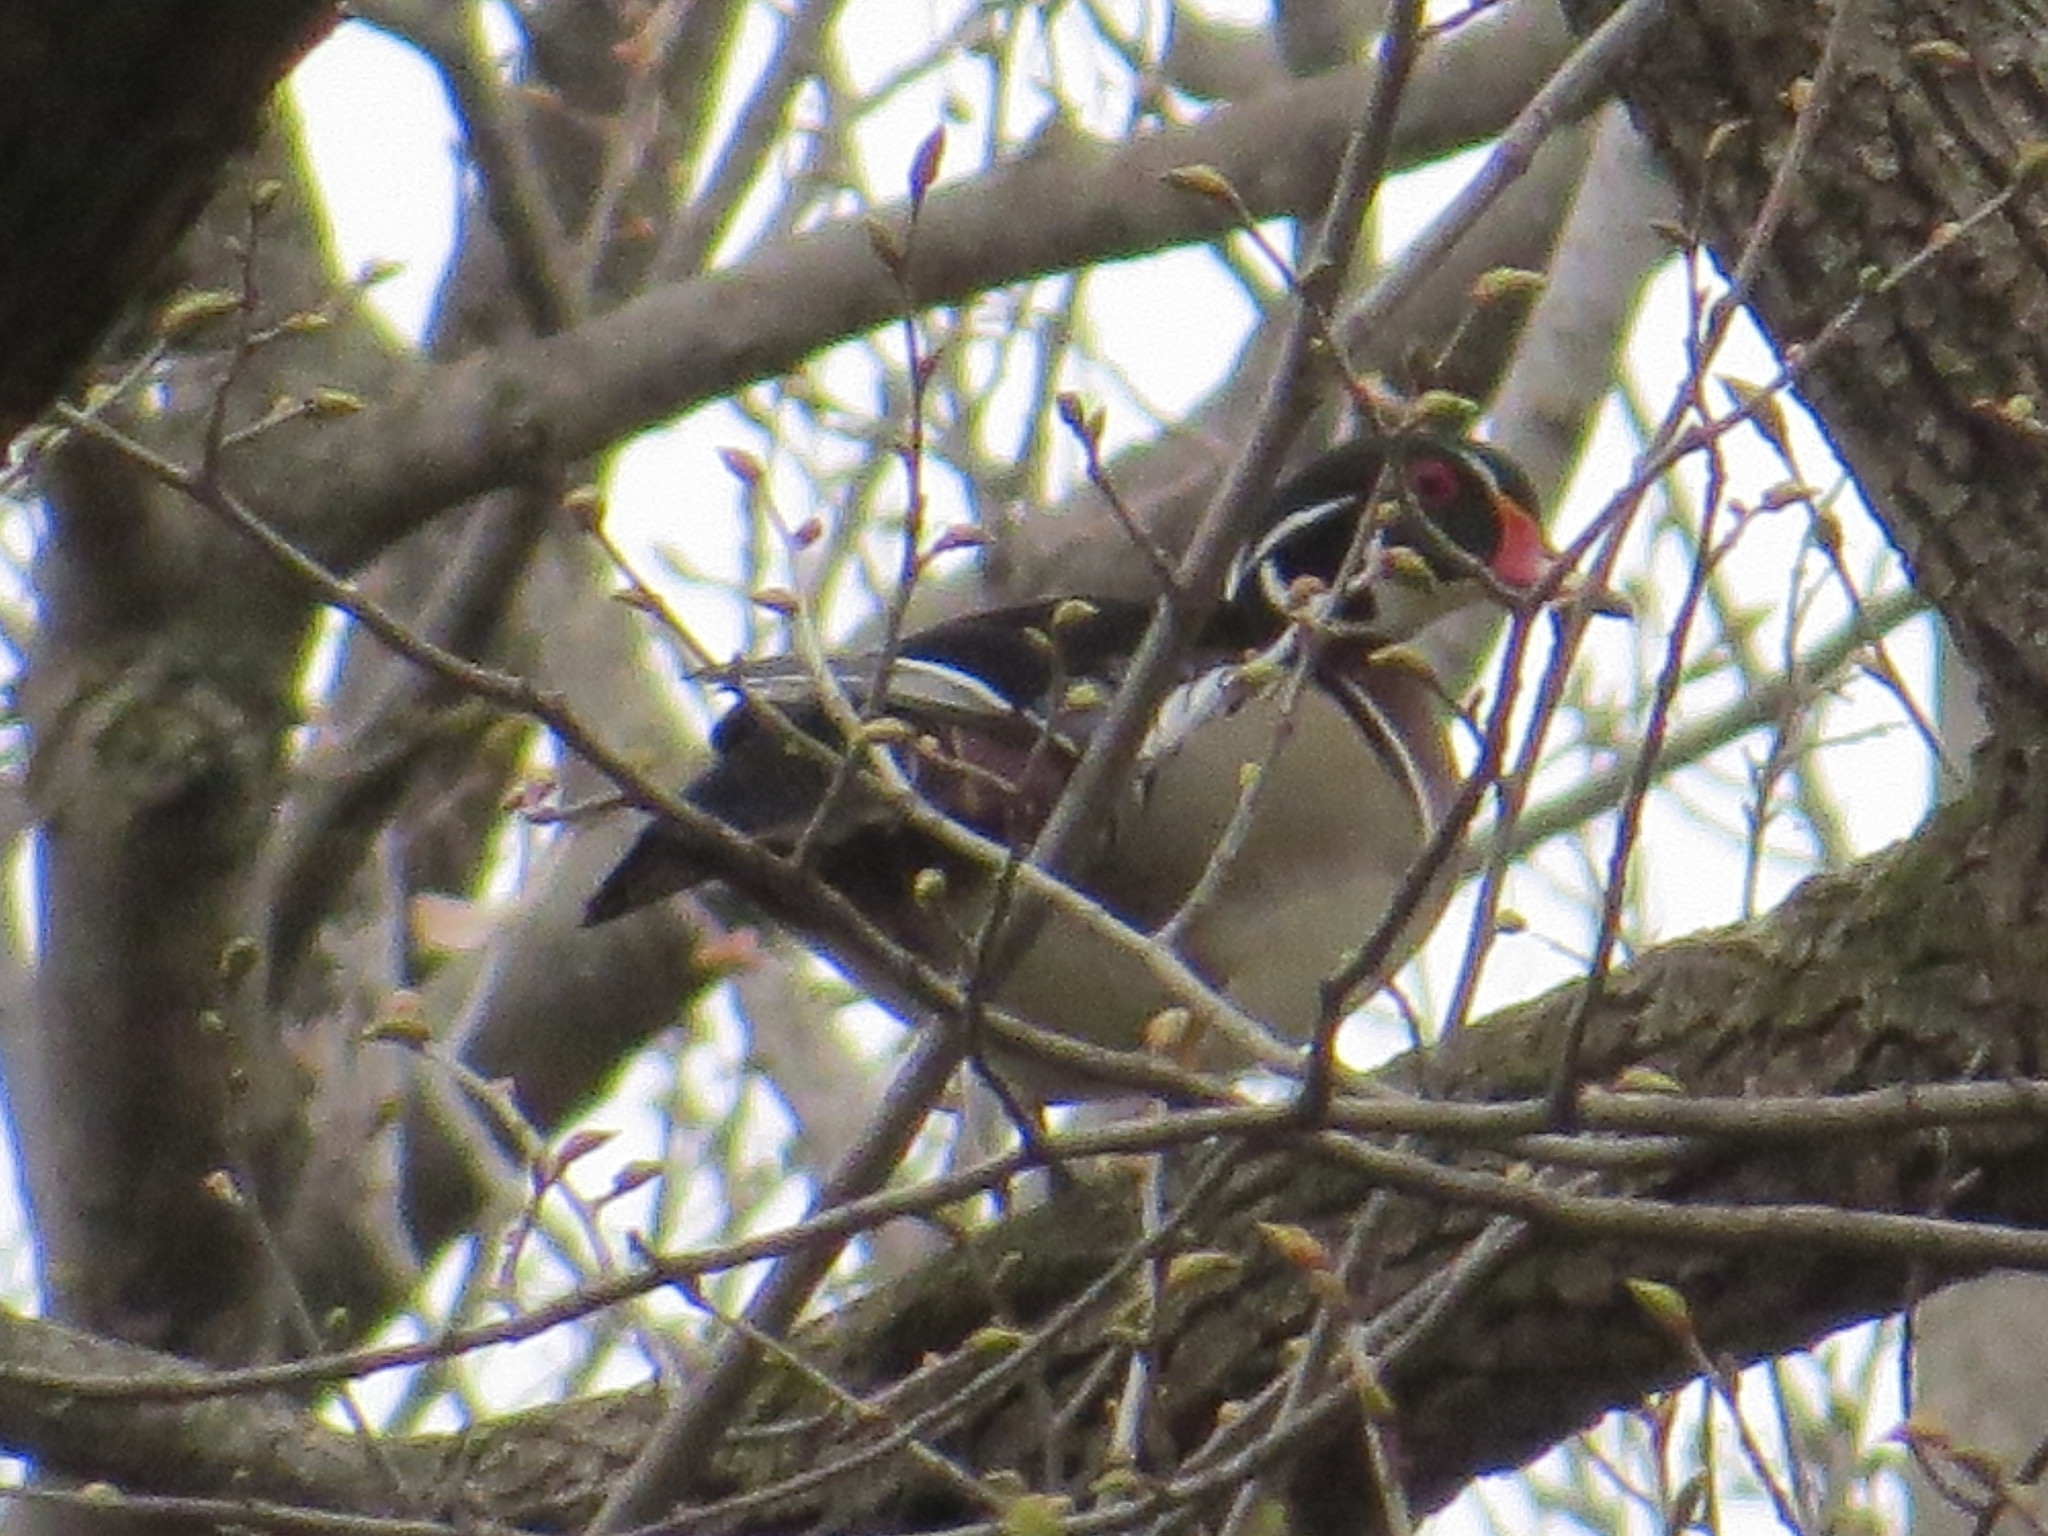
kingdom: Animalia
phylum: Chordata
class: Aves
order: Anseriformes
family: Anatidae
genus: Aix
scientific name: Aix sponsa
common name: Wood duck
